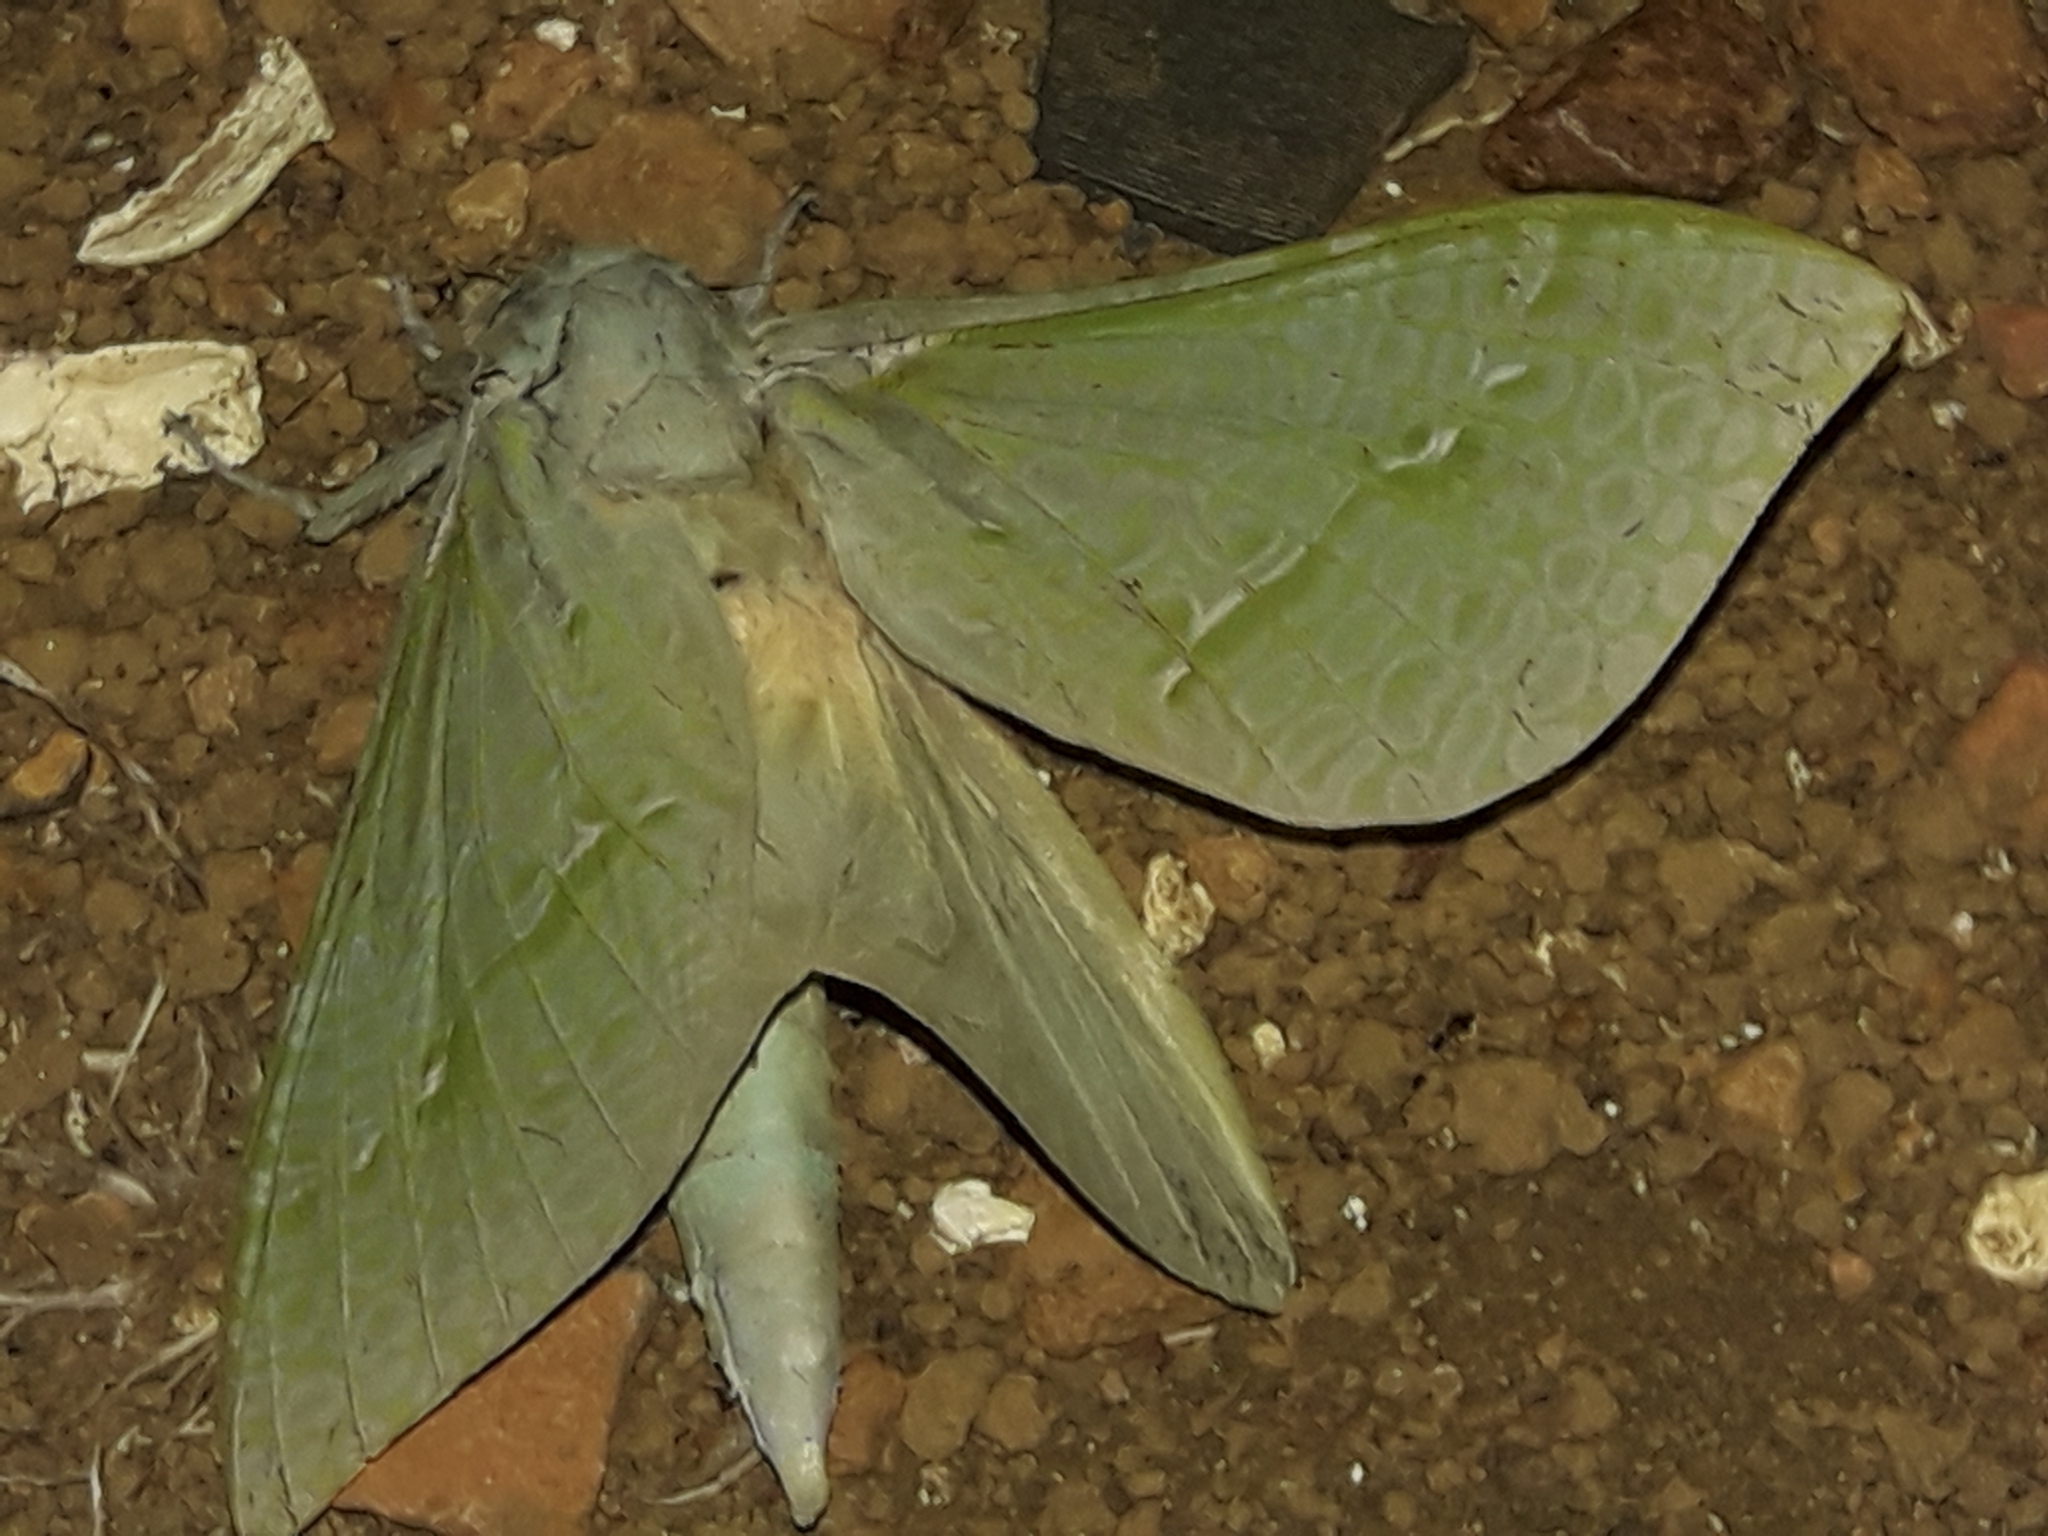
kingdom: Animalia
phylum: Arthropoda
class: Insecta
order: Lepidoptera
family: Hepialidae
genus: Aenetus
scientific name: Aenetus virescens
